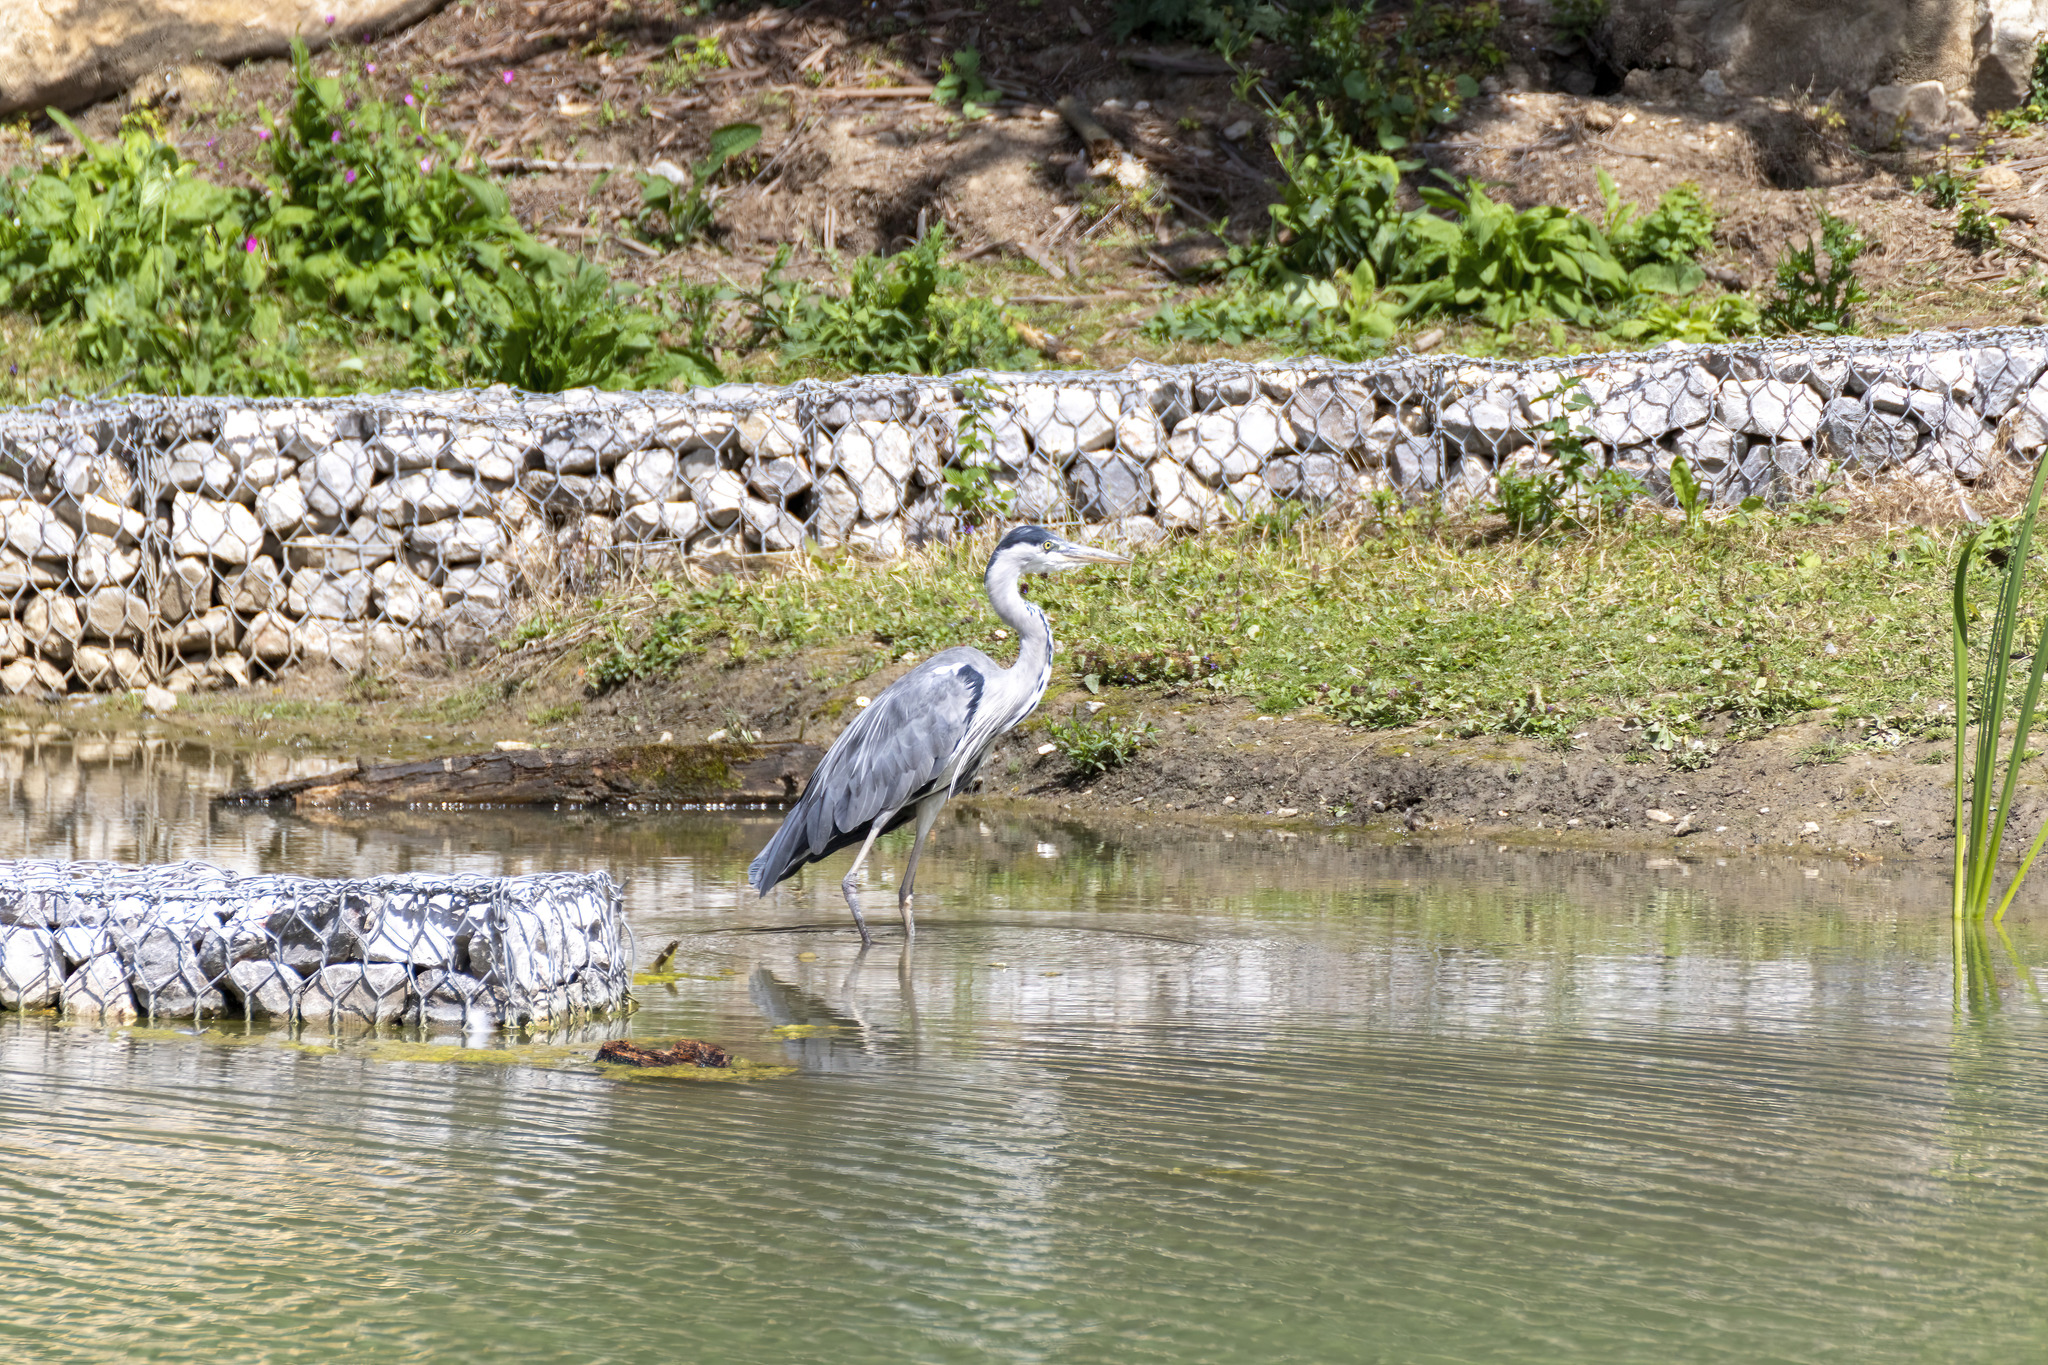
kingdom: Animalia
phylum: Chordata
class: Aves
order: Pelecaniformes
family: Ardeidae
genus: Ardea
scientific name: Ardea cinerea
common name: Grey heron
